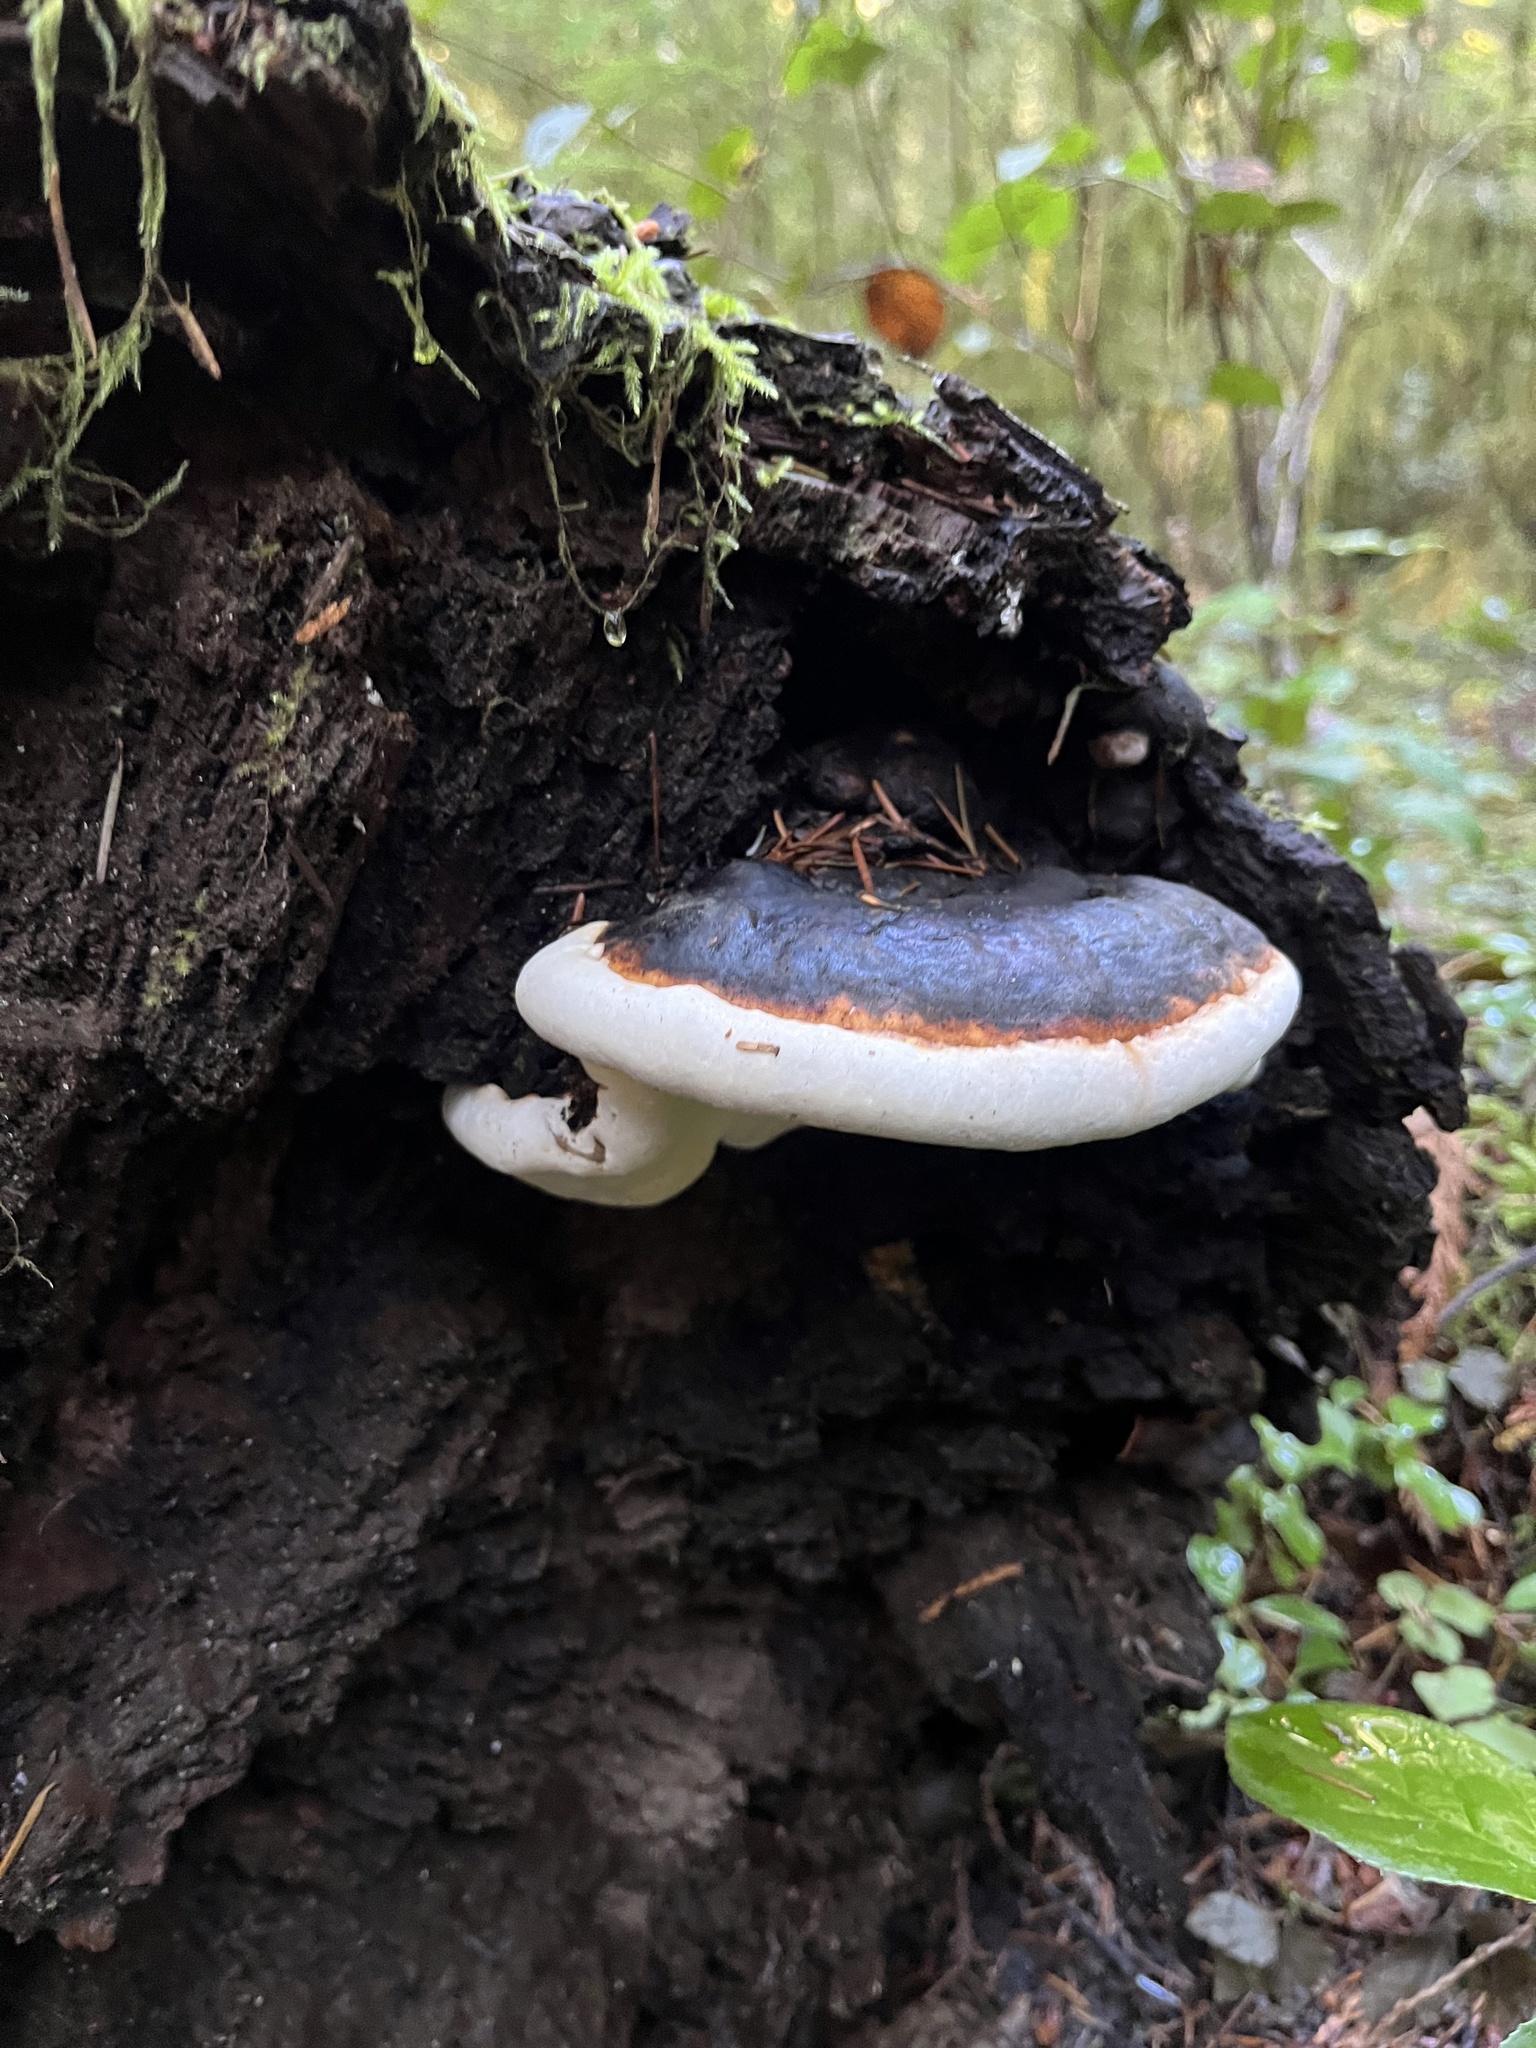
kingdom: Fungi
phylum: Basidiomycota
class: Agaricomycetes
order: Polyporales
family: Fomitopsidaceae
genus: Fomitopsis
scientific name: Fomitopsis mounceae
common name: Northern red belt
